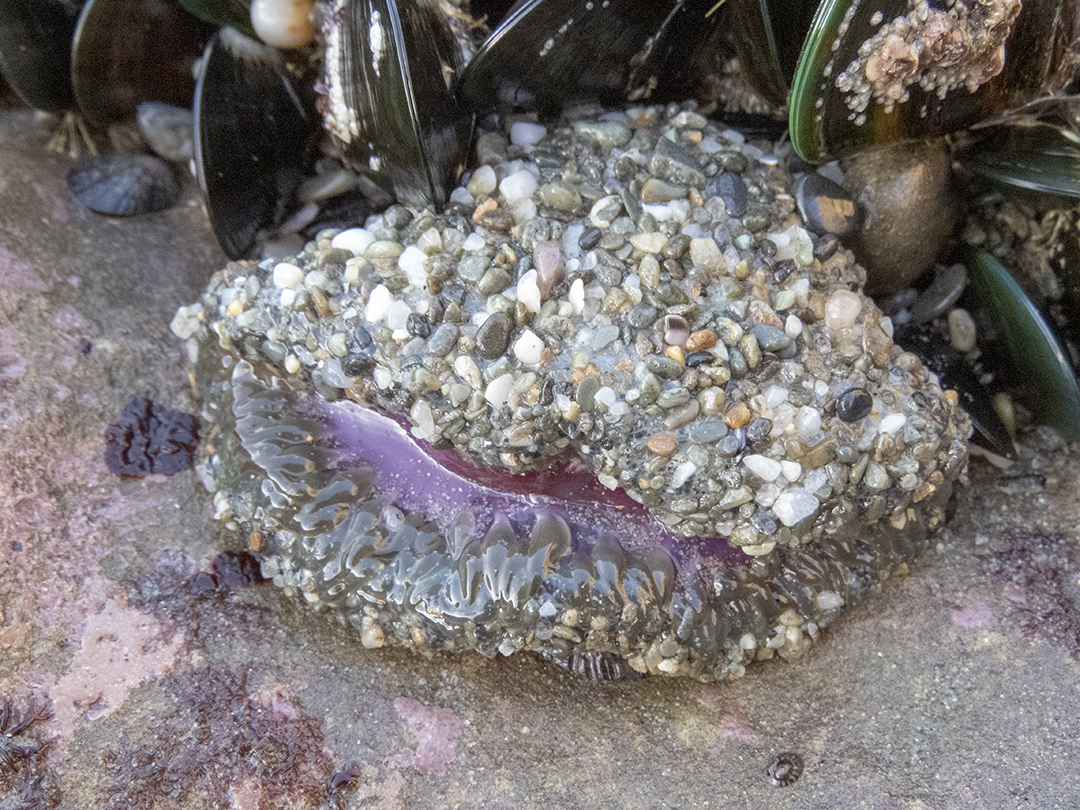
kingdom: Animalia
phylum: Cnidaria
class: Anthozoa
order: Actiniaria
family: Actiniidae
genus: Oulactis
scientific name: Oulactis magna
